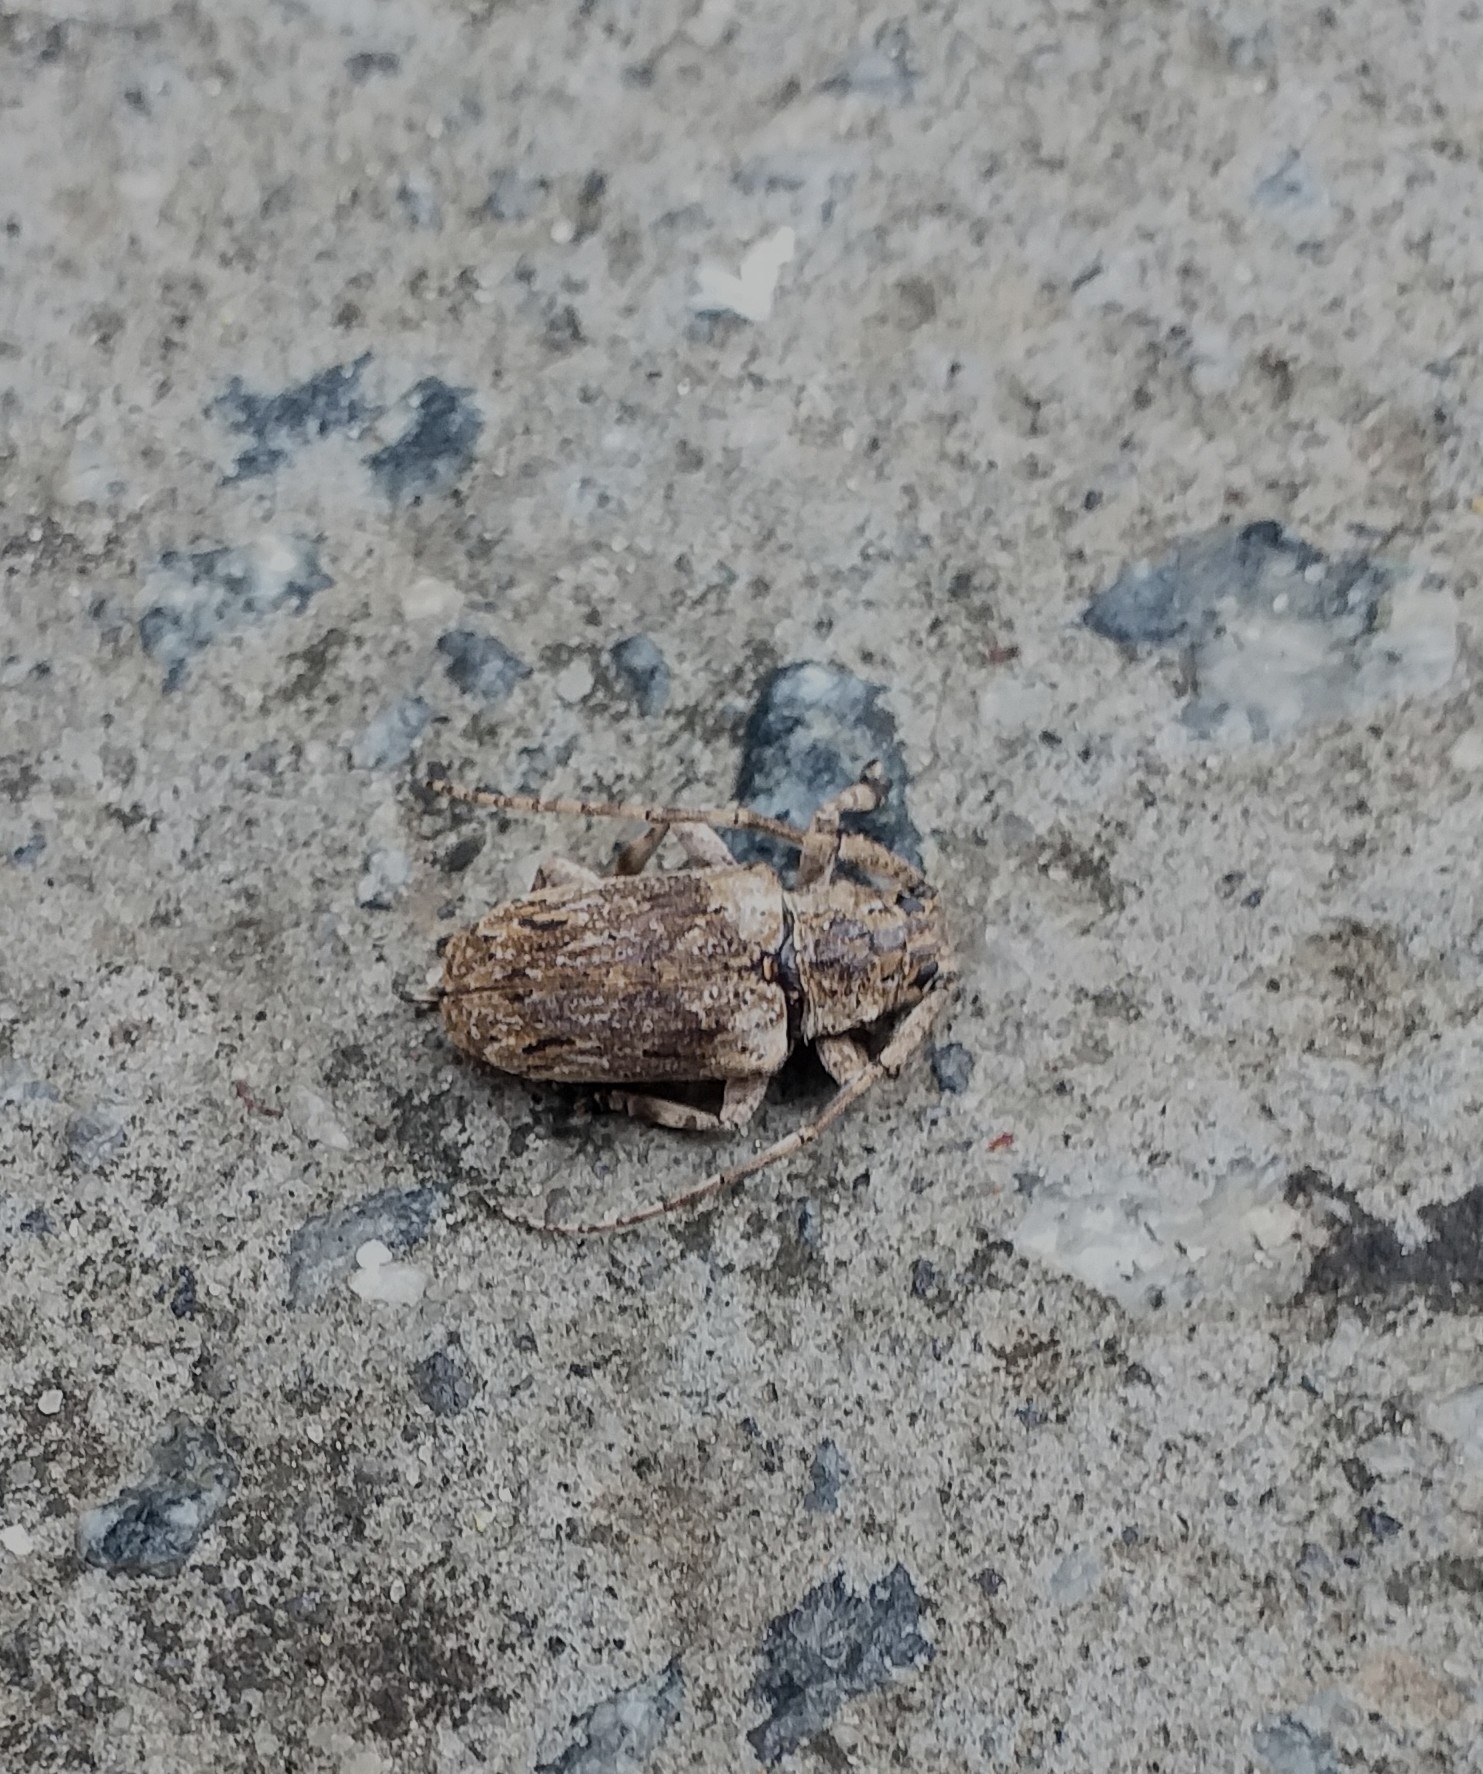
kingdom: Animalia
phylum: Arthropoda
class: Insecta
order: Coleoptera
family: Cerambycidae
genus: Coptops
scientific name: Coptops aedificator
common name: Long-horned beetle
